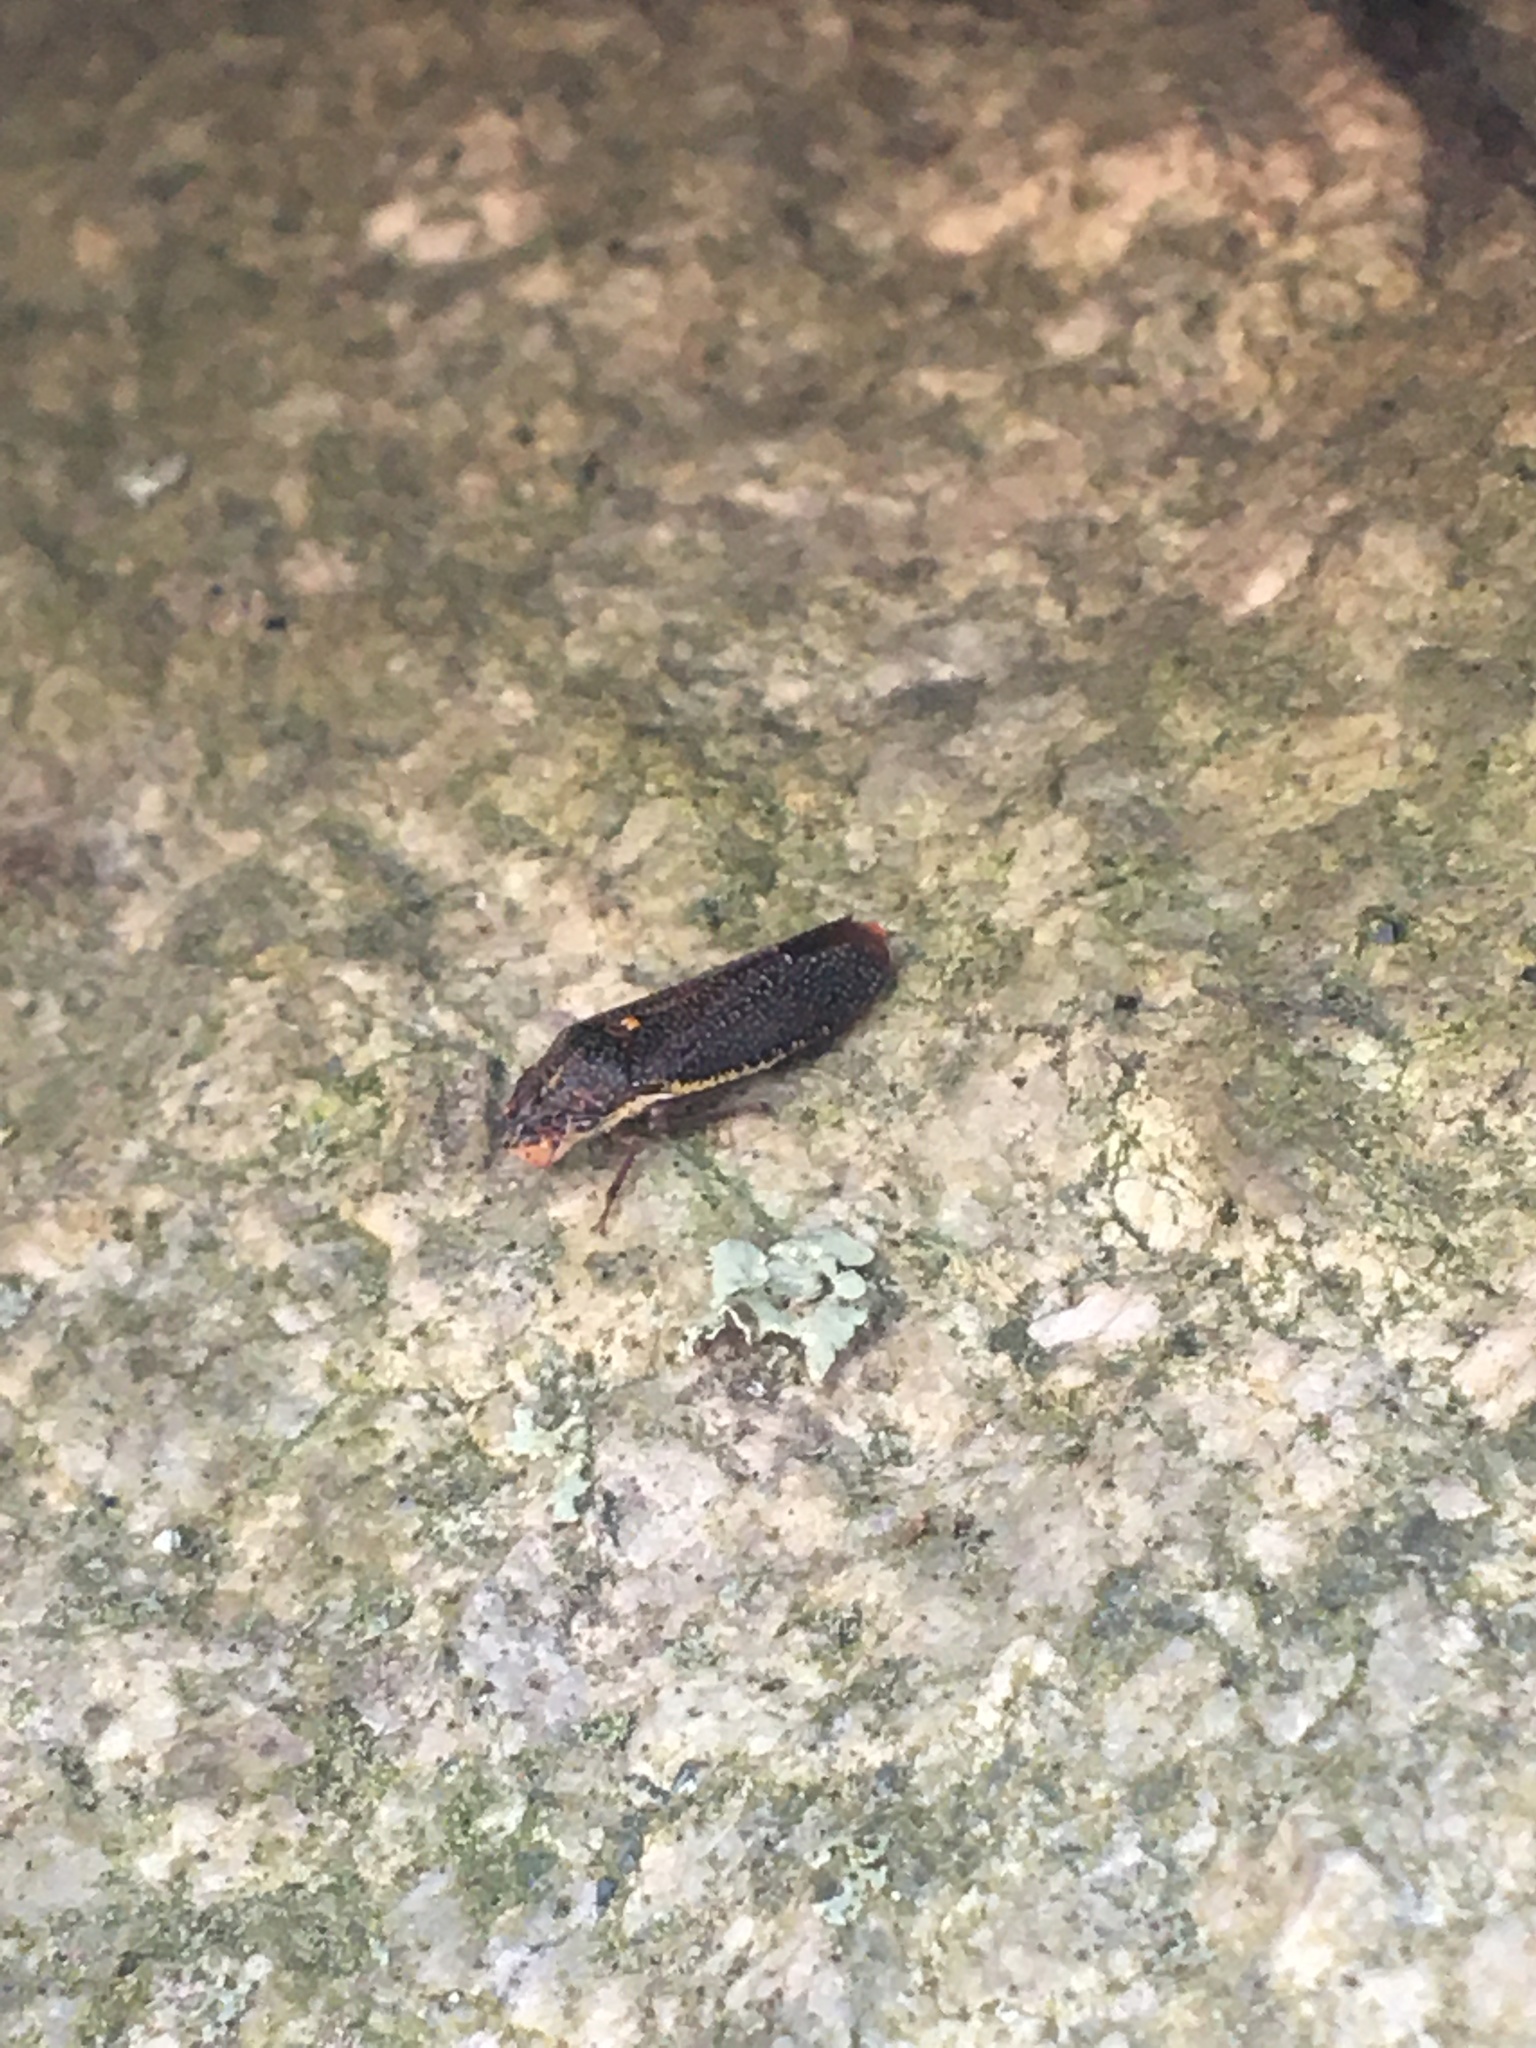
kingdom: Animalia
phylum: Arthropoda
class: Insecta
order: Hemiptera
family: Cicadellidae
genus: Paraulacizes
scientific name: Paraulacizes irrorata
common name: Speckled sharpshooter
